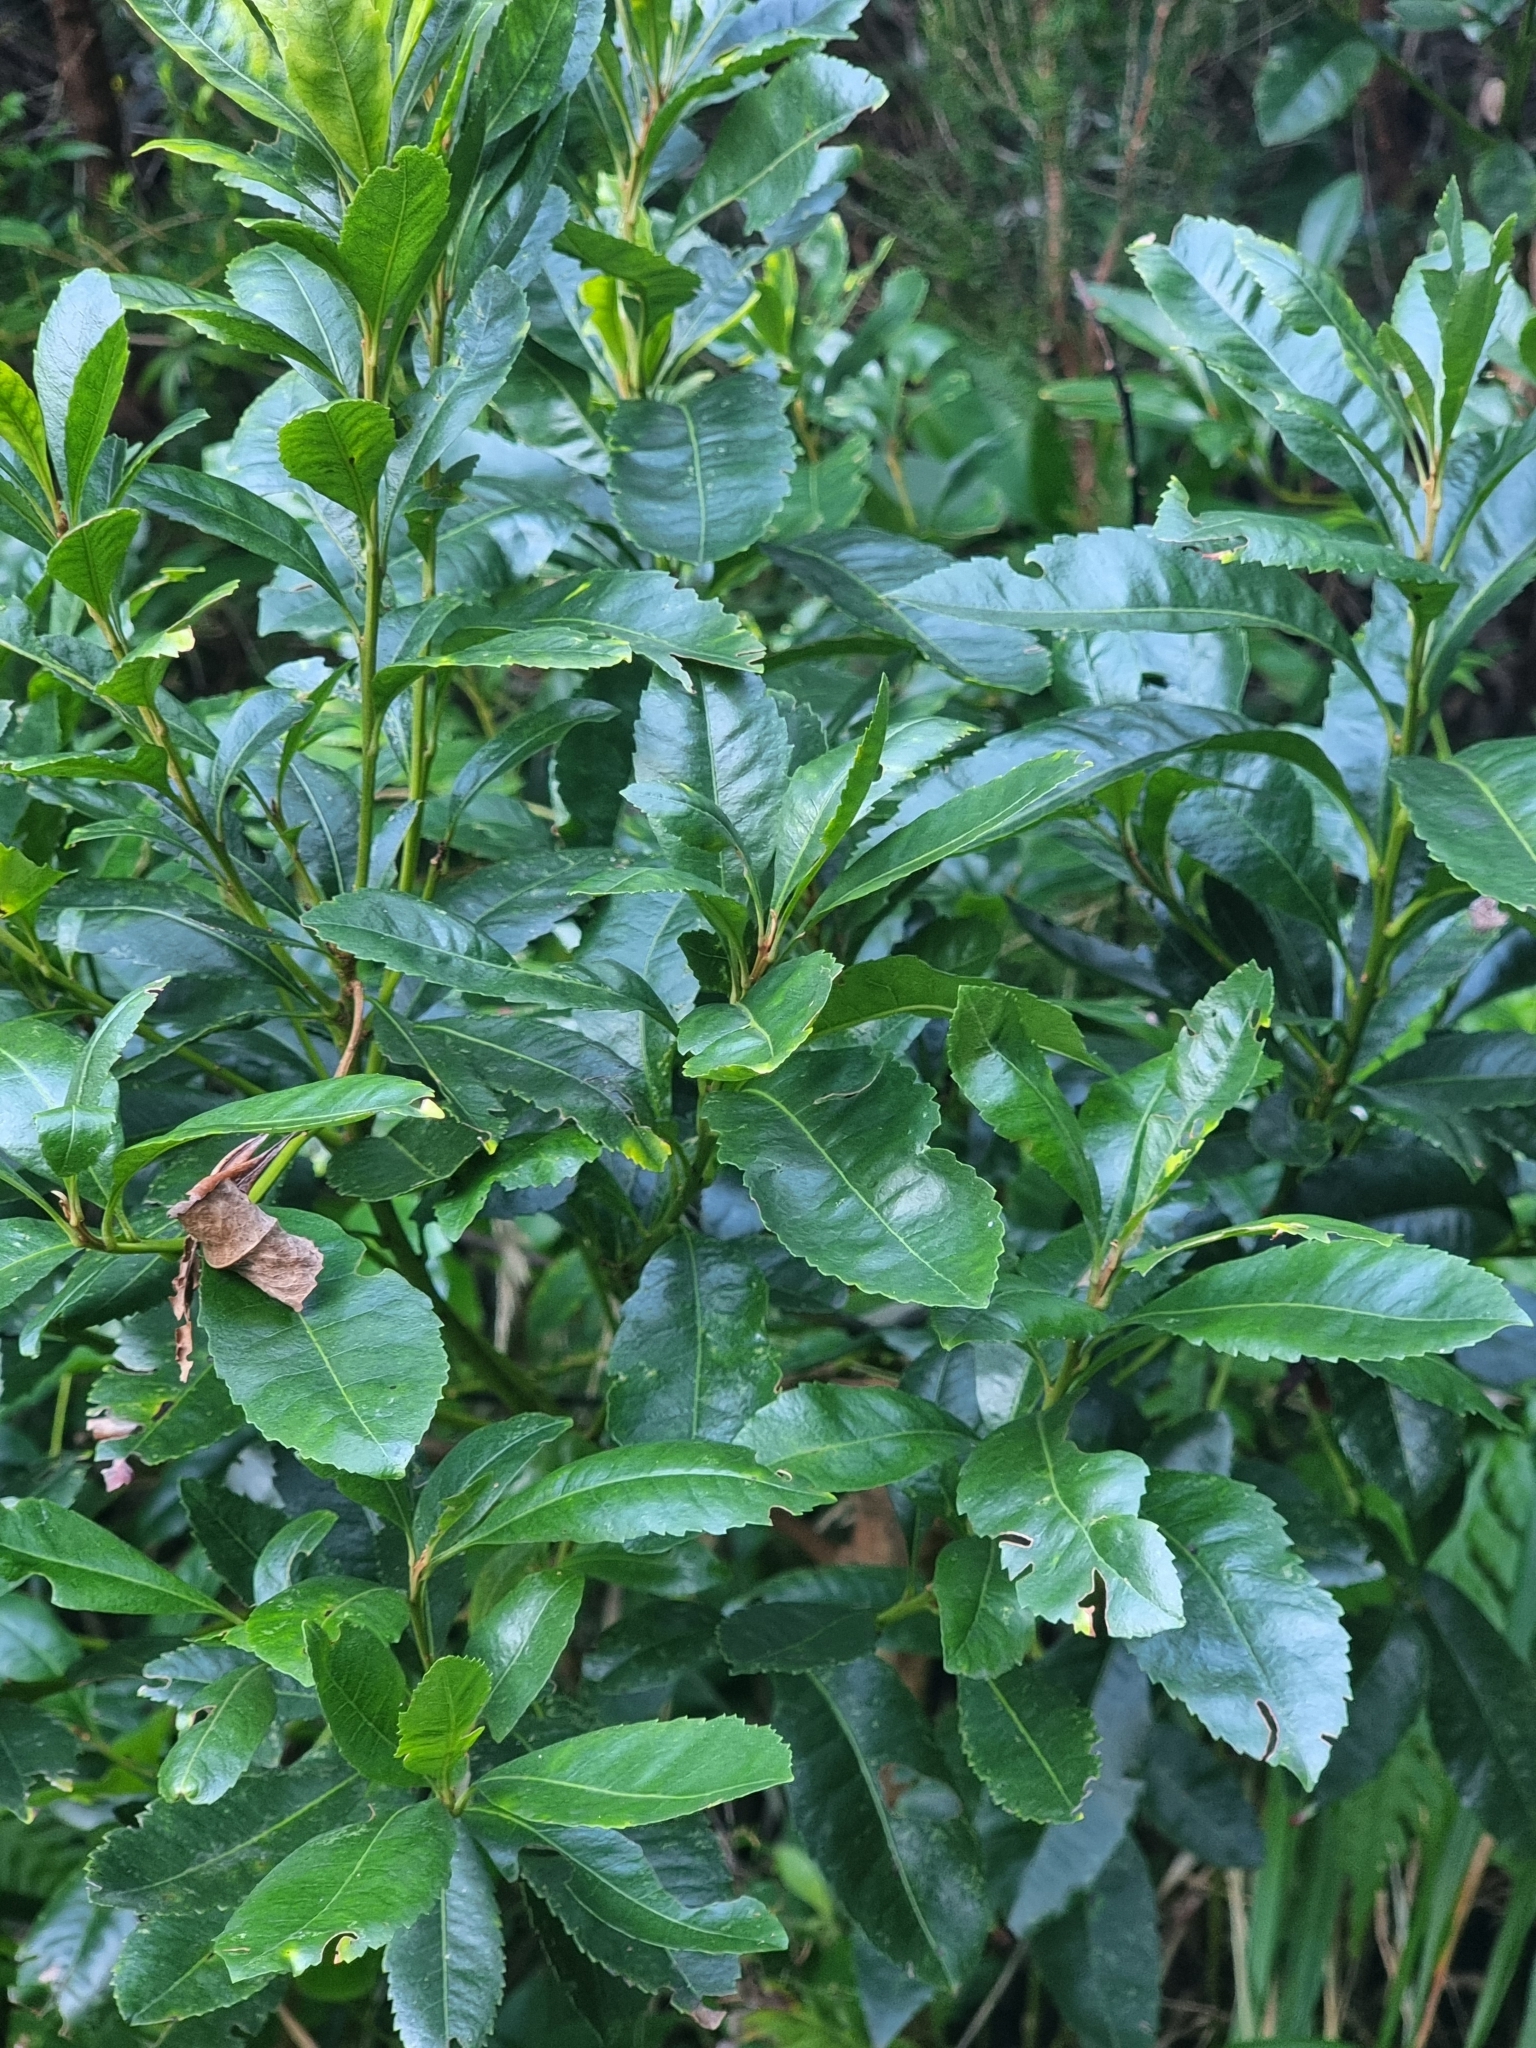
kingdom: Plantae
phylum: Tracheophyta
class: Magnoliopsida
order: Fagales
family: Myricaceae
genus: Morella
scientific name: Morella faya
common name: Firetree
